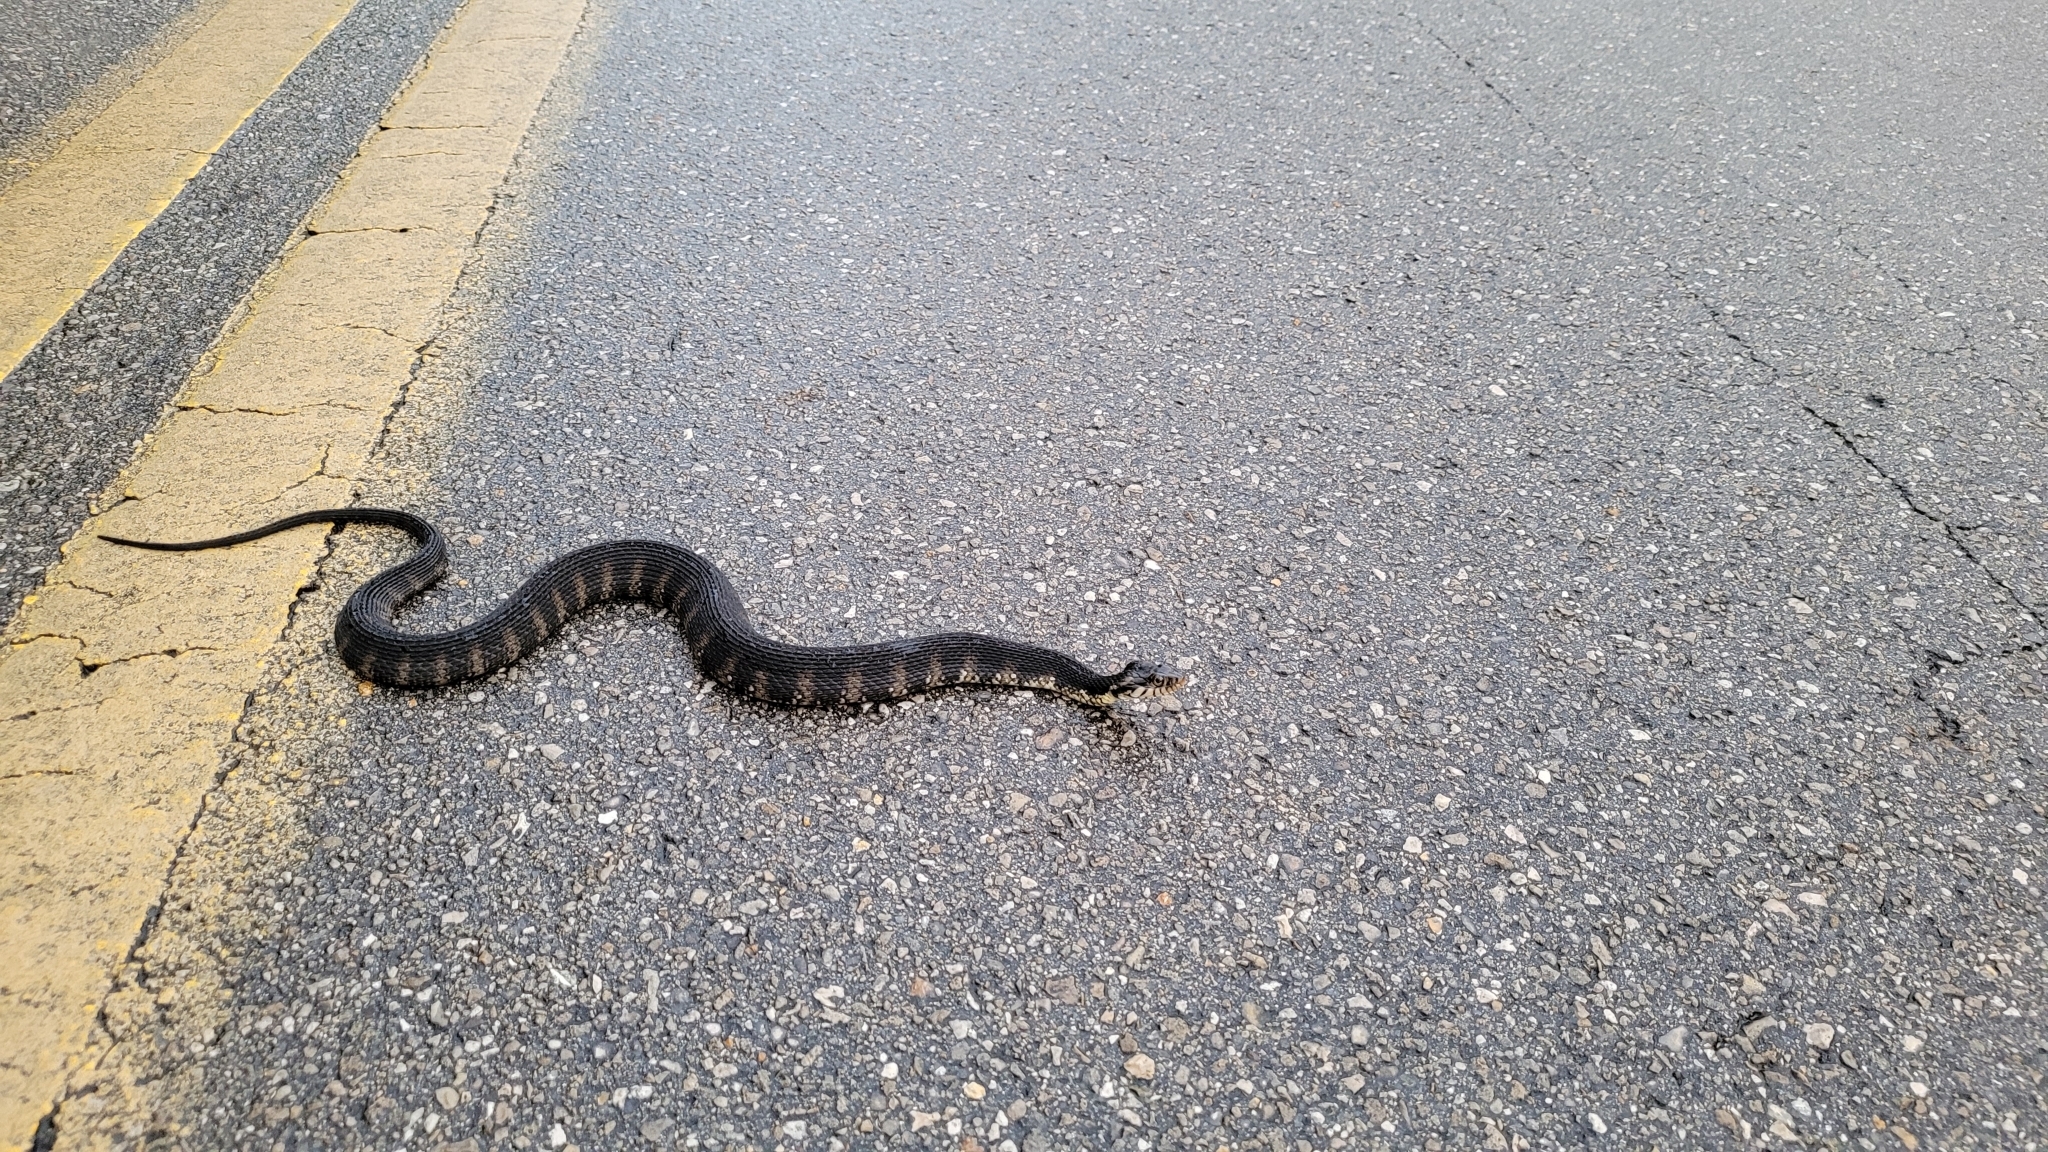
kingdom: Animalia
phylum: Chordata
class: Squamata
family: Colubridae
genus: Nerodia
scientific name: Nerodia fasciata
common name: Southern water snake
